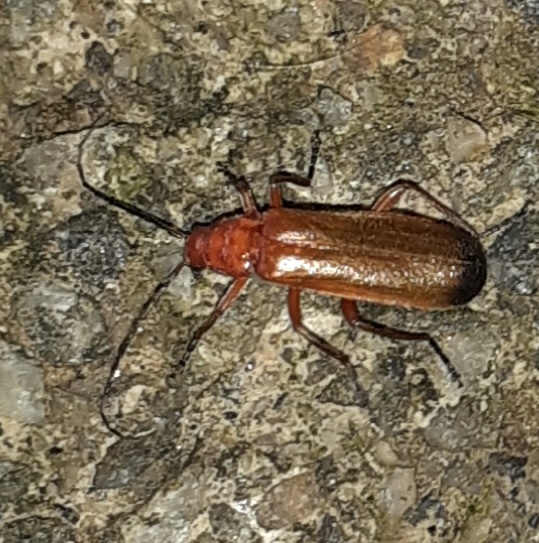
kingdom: Animalia
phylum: Arthropoda
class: Insecta
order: Coleoptera
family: Cantharidae
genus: Rhagonycha
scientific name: Rhagonycha fulva
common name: Common red soldier beetle
